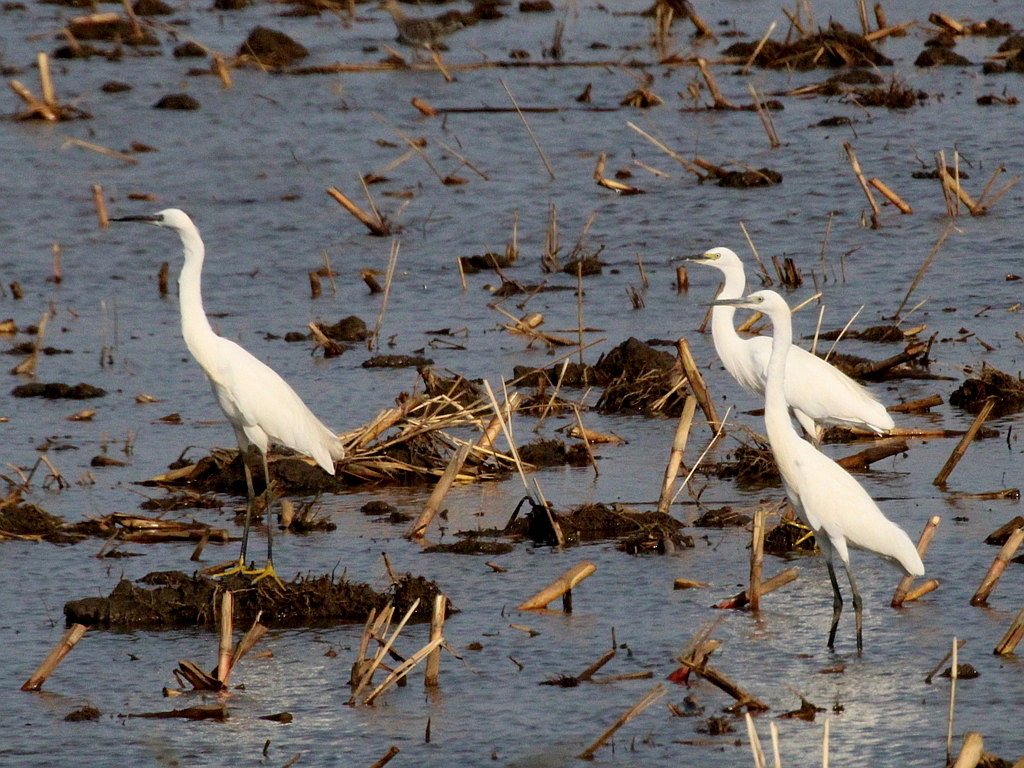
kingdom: Animalia
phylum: Chordata
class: Aves
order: Pelecaniformes
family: Ardeidae
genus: Egretta
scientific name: Egretta garzetta
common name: Little egret
